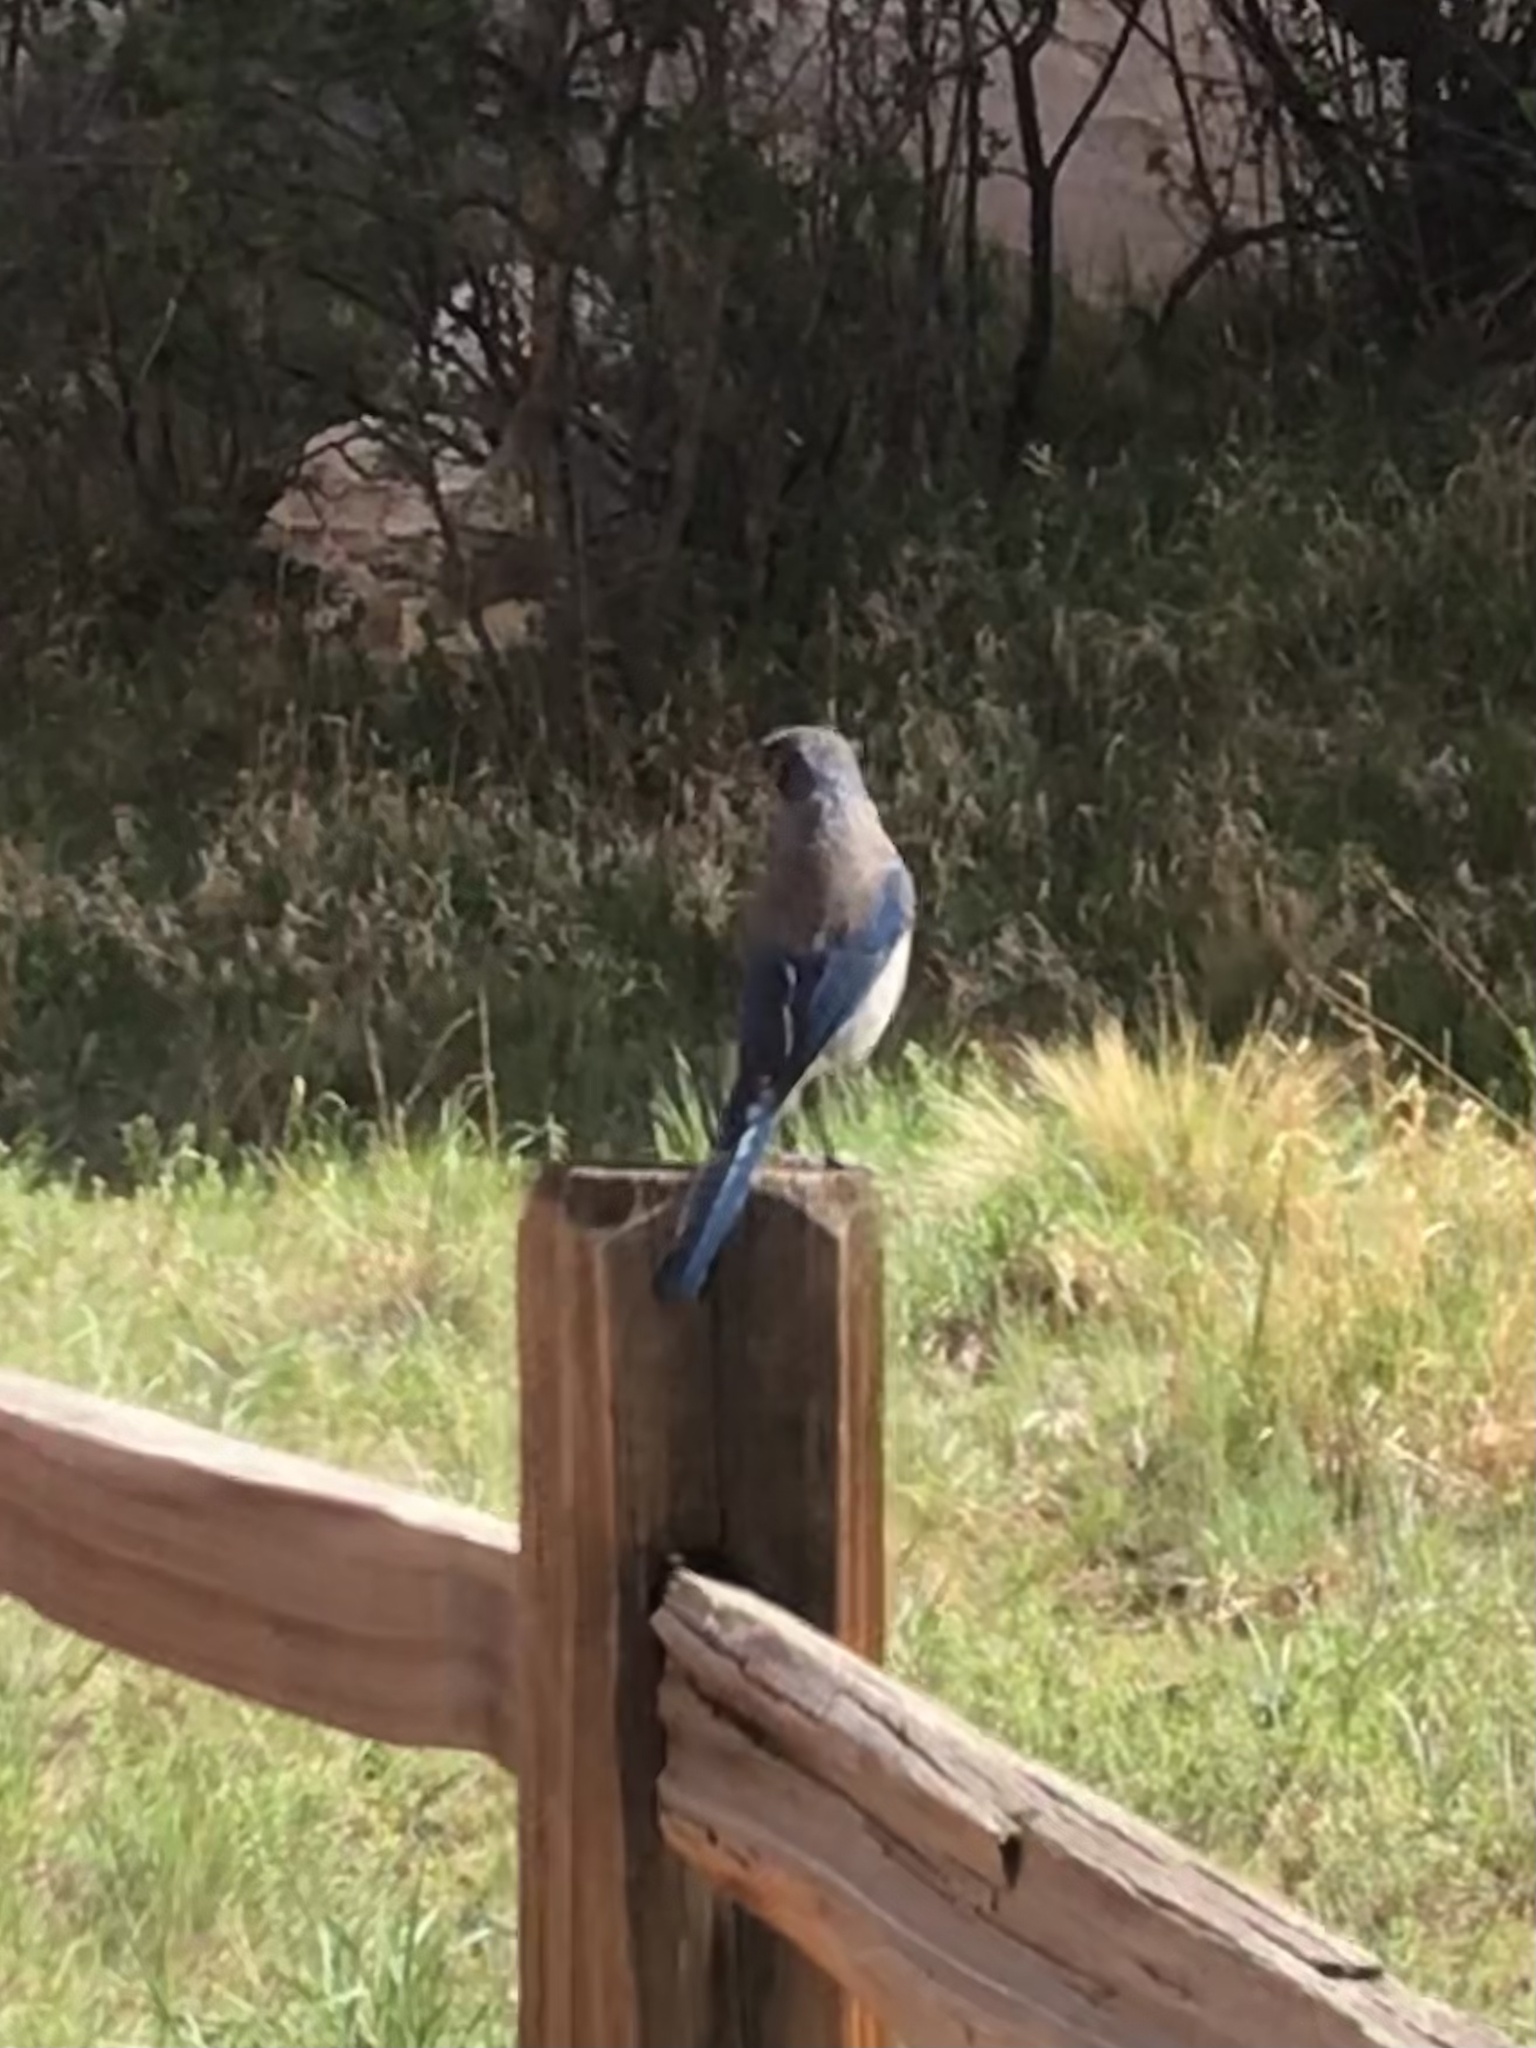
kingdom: Animalia
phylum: Chordata
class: Aves
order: Passeriformes
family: Corvidae
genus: Aphelocoma
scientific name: Aphelocoma woodhouseii
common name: Woodhouse's scrub-jay
